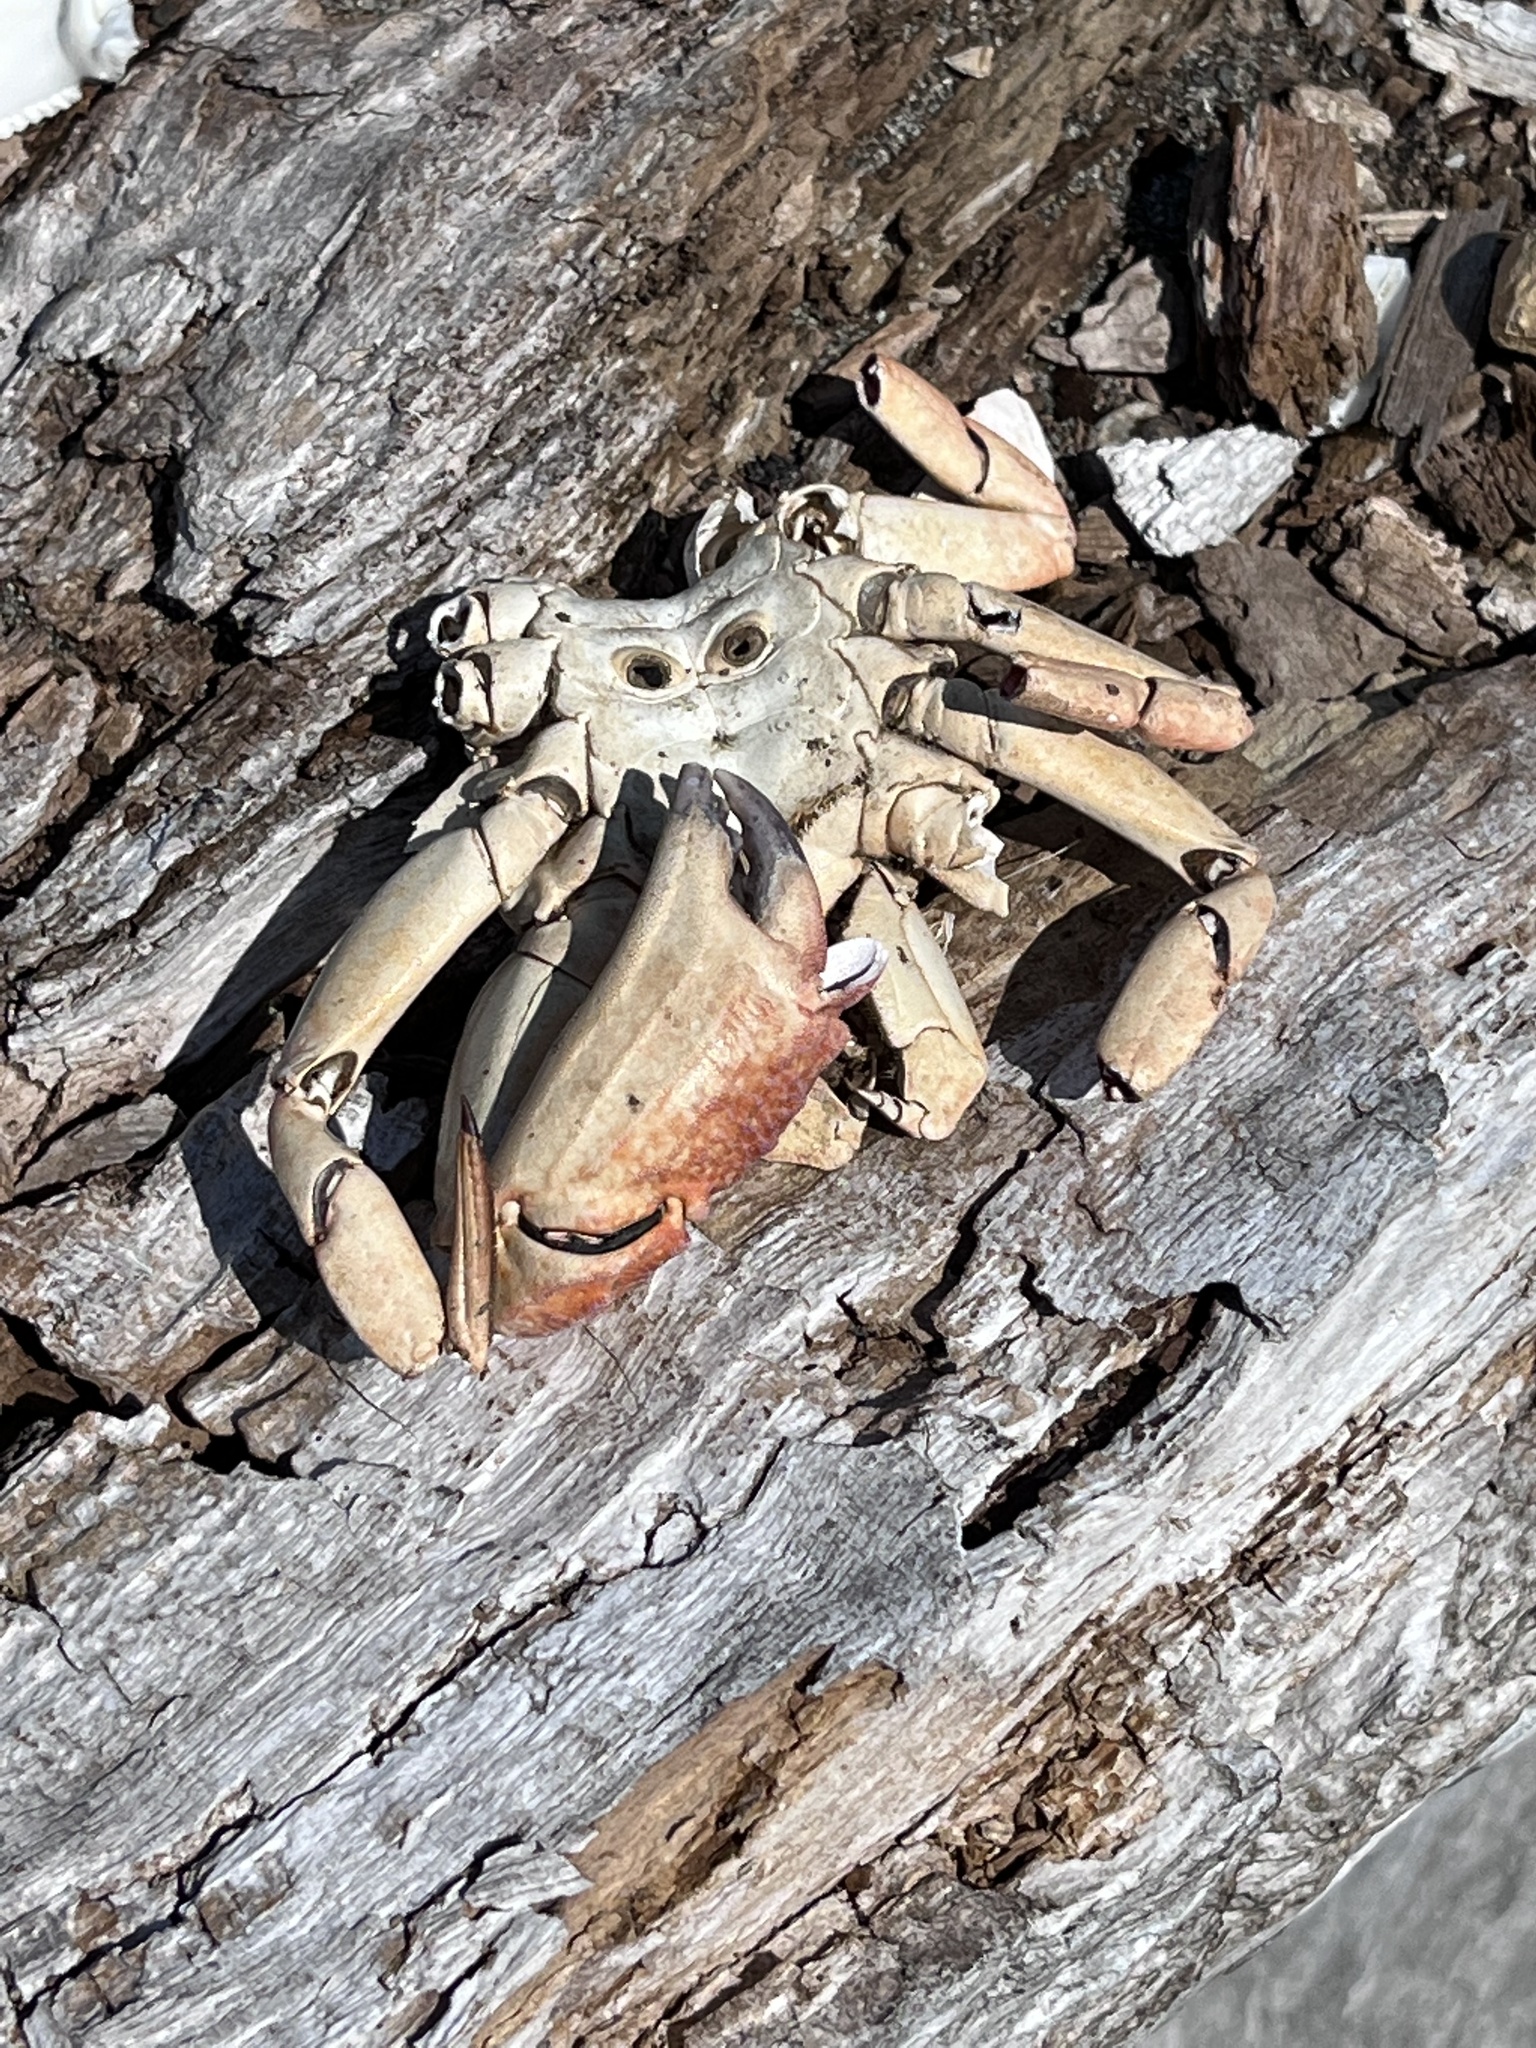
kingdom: Animalia
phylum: Arthropoda
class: Malacostraca
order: Decapoda
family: Cancridae
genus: Cancer
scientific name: Cancer productus
